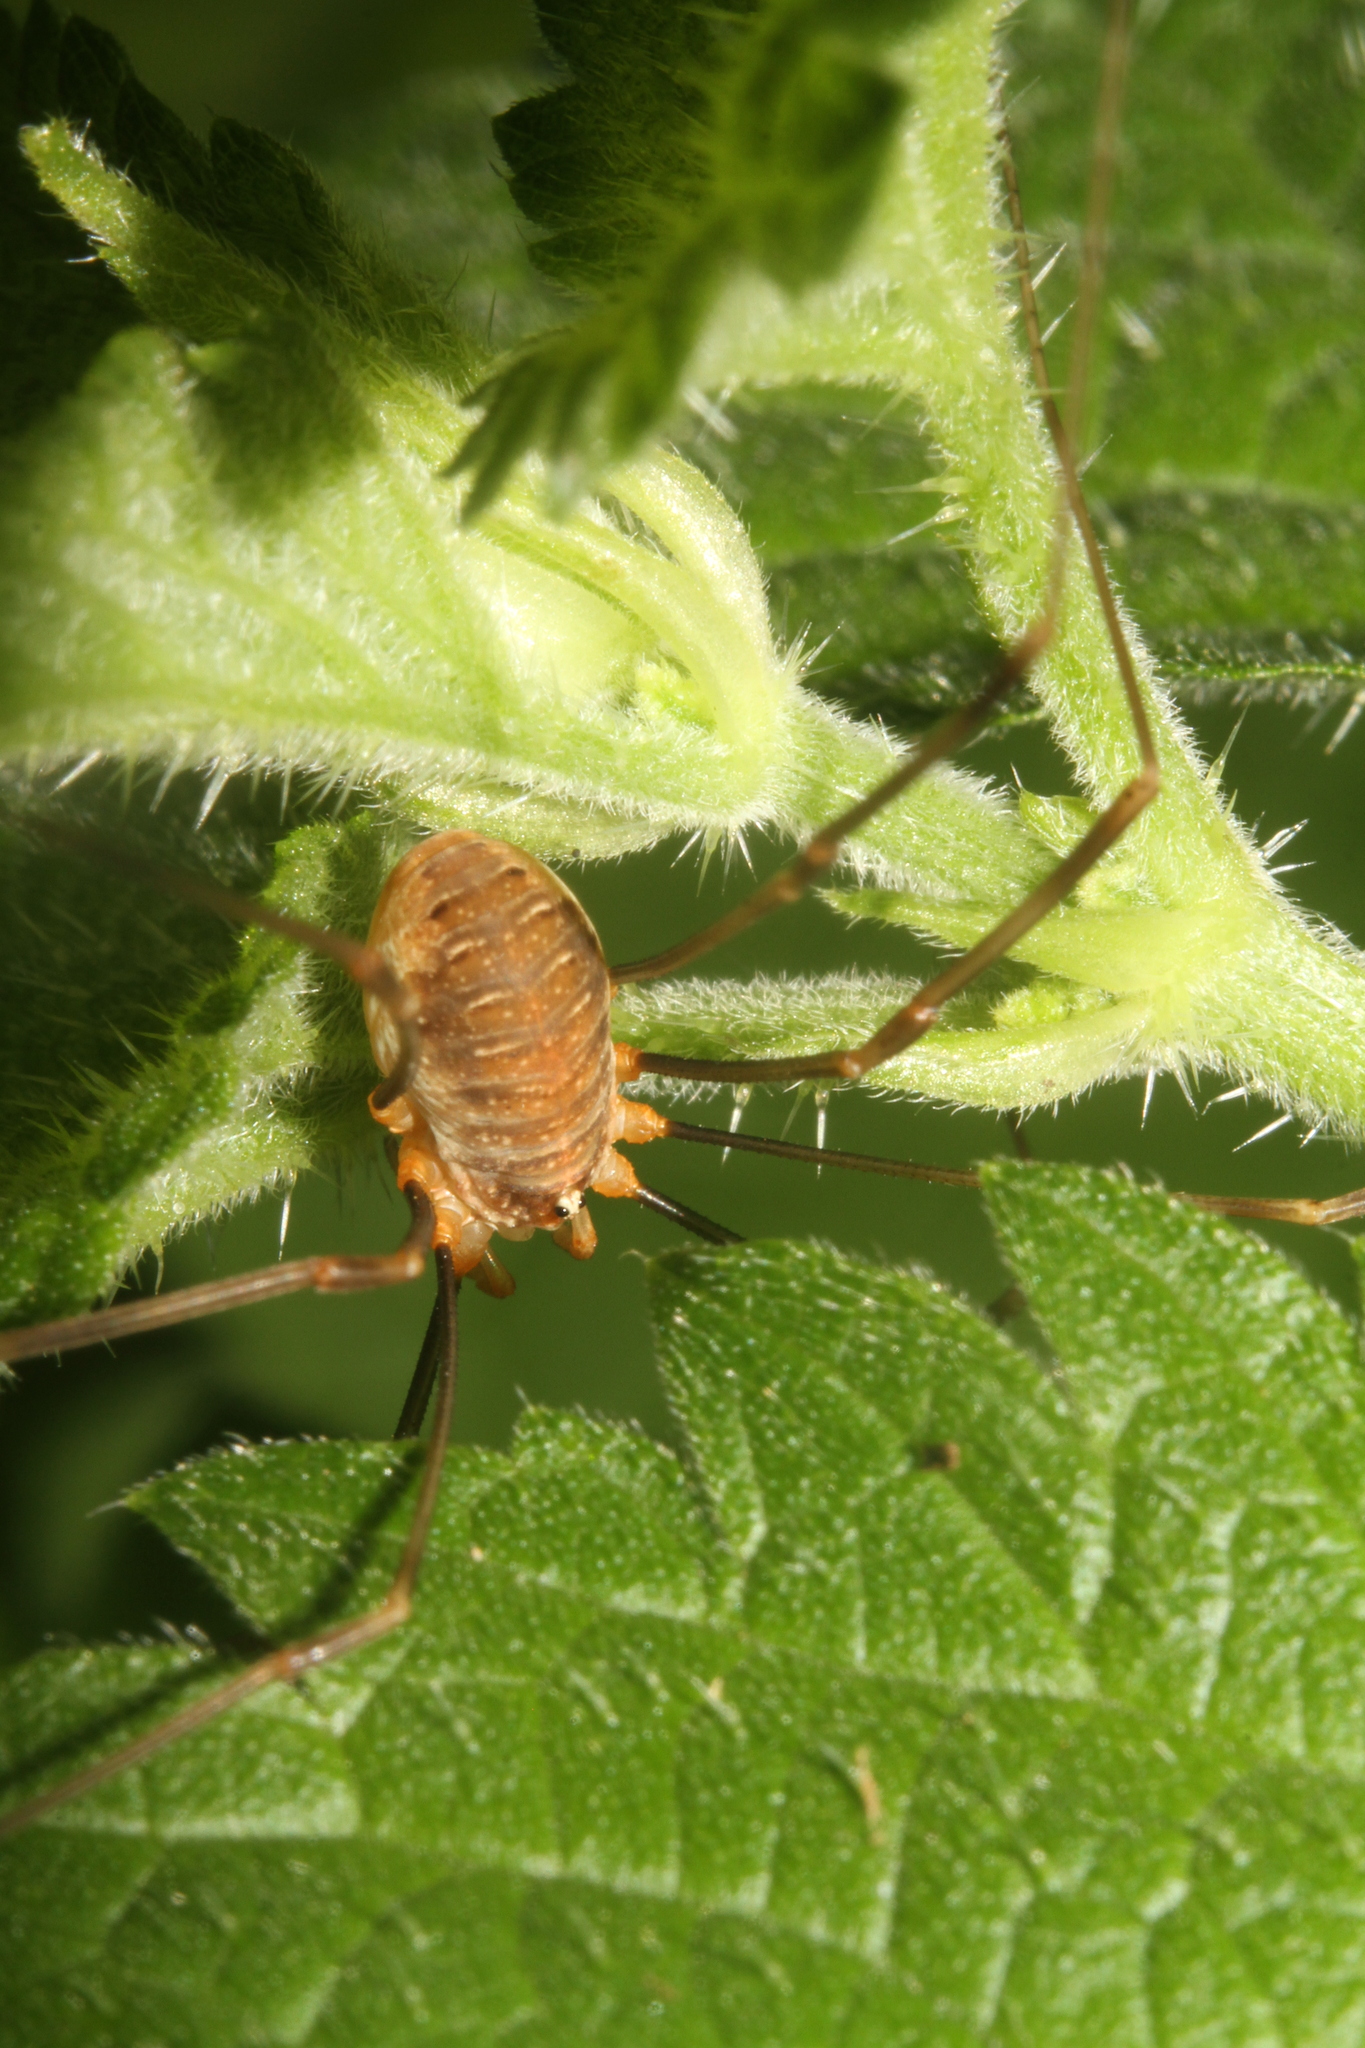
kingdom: Animalia
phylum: Arthropoda
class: Arachnida
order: Opiliones
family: Phalangiidae
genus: Opilio
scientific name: Opilio canestrinii
